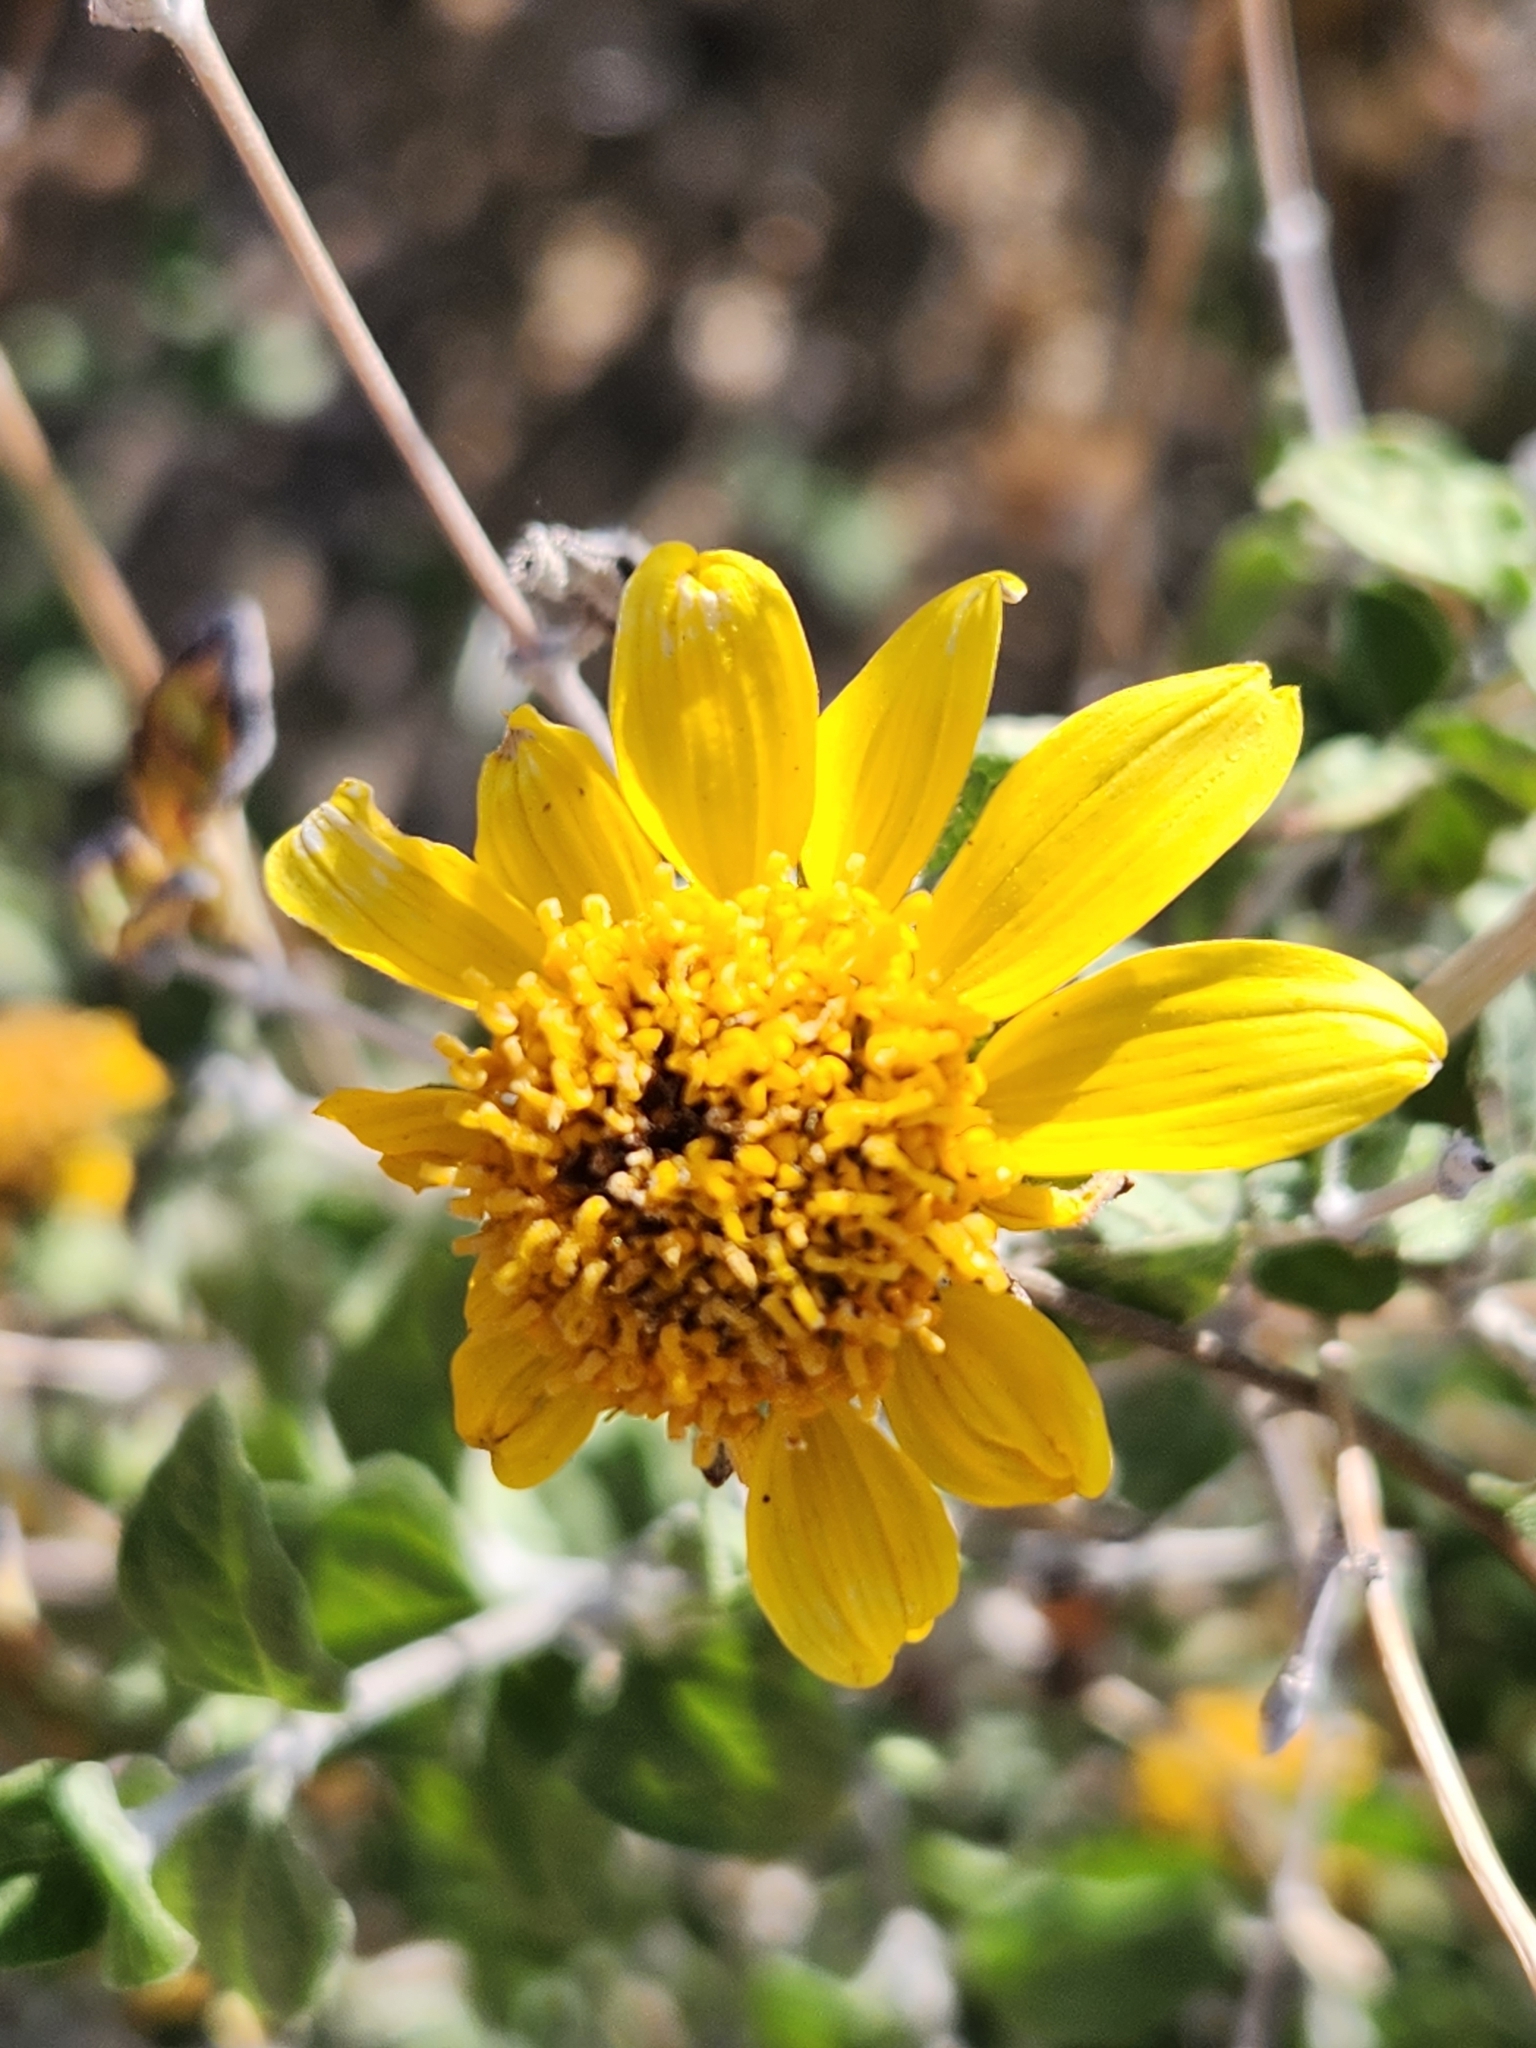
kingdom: Plantae
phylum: Tracheophyta
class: Magnoliopsida
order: Asterales
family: Asteraceae
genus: Bahiopsis
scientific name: Bahiopsis parishii
